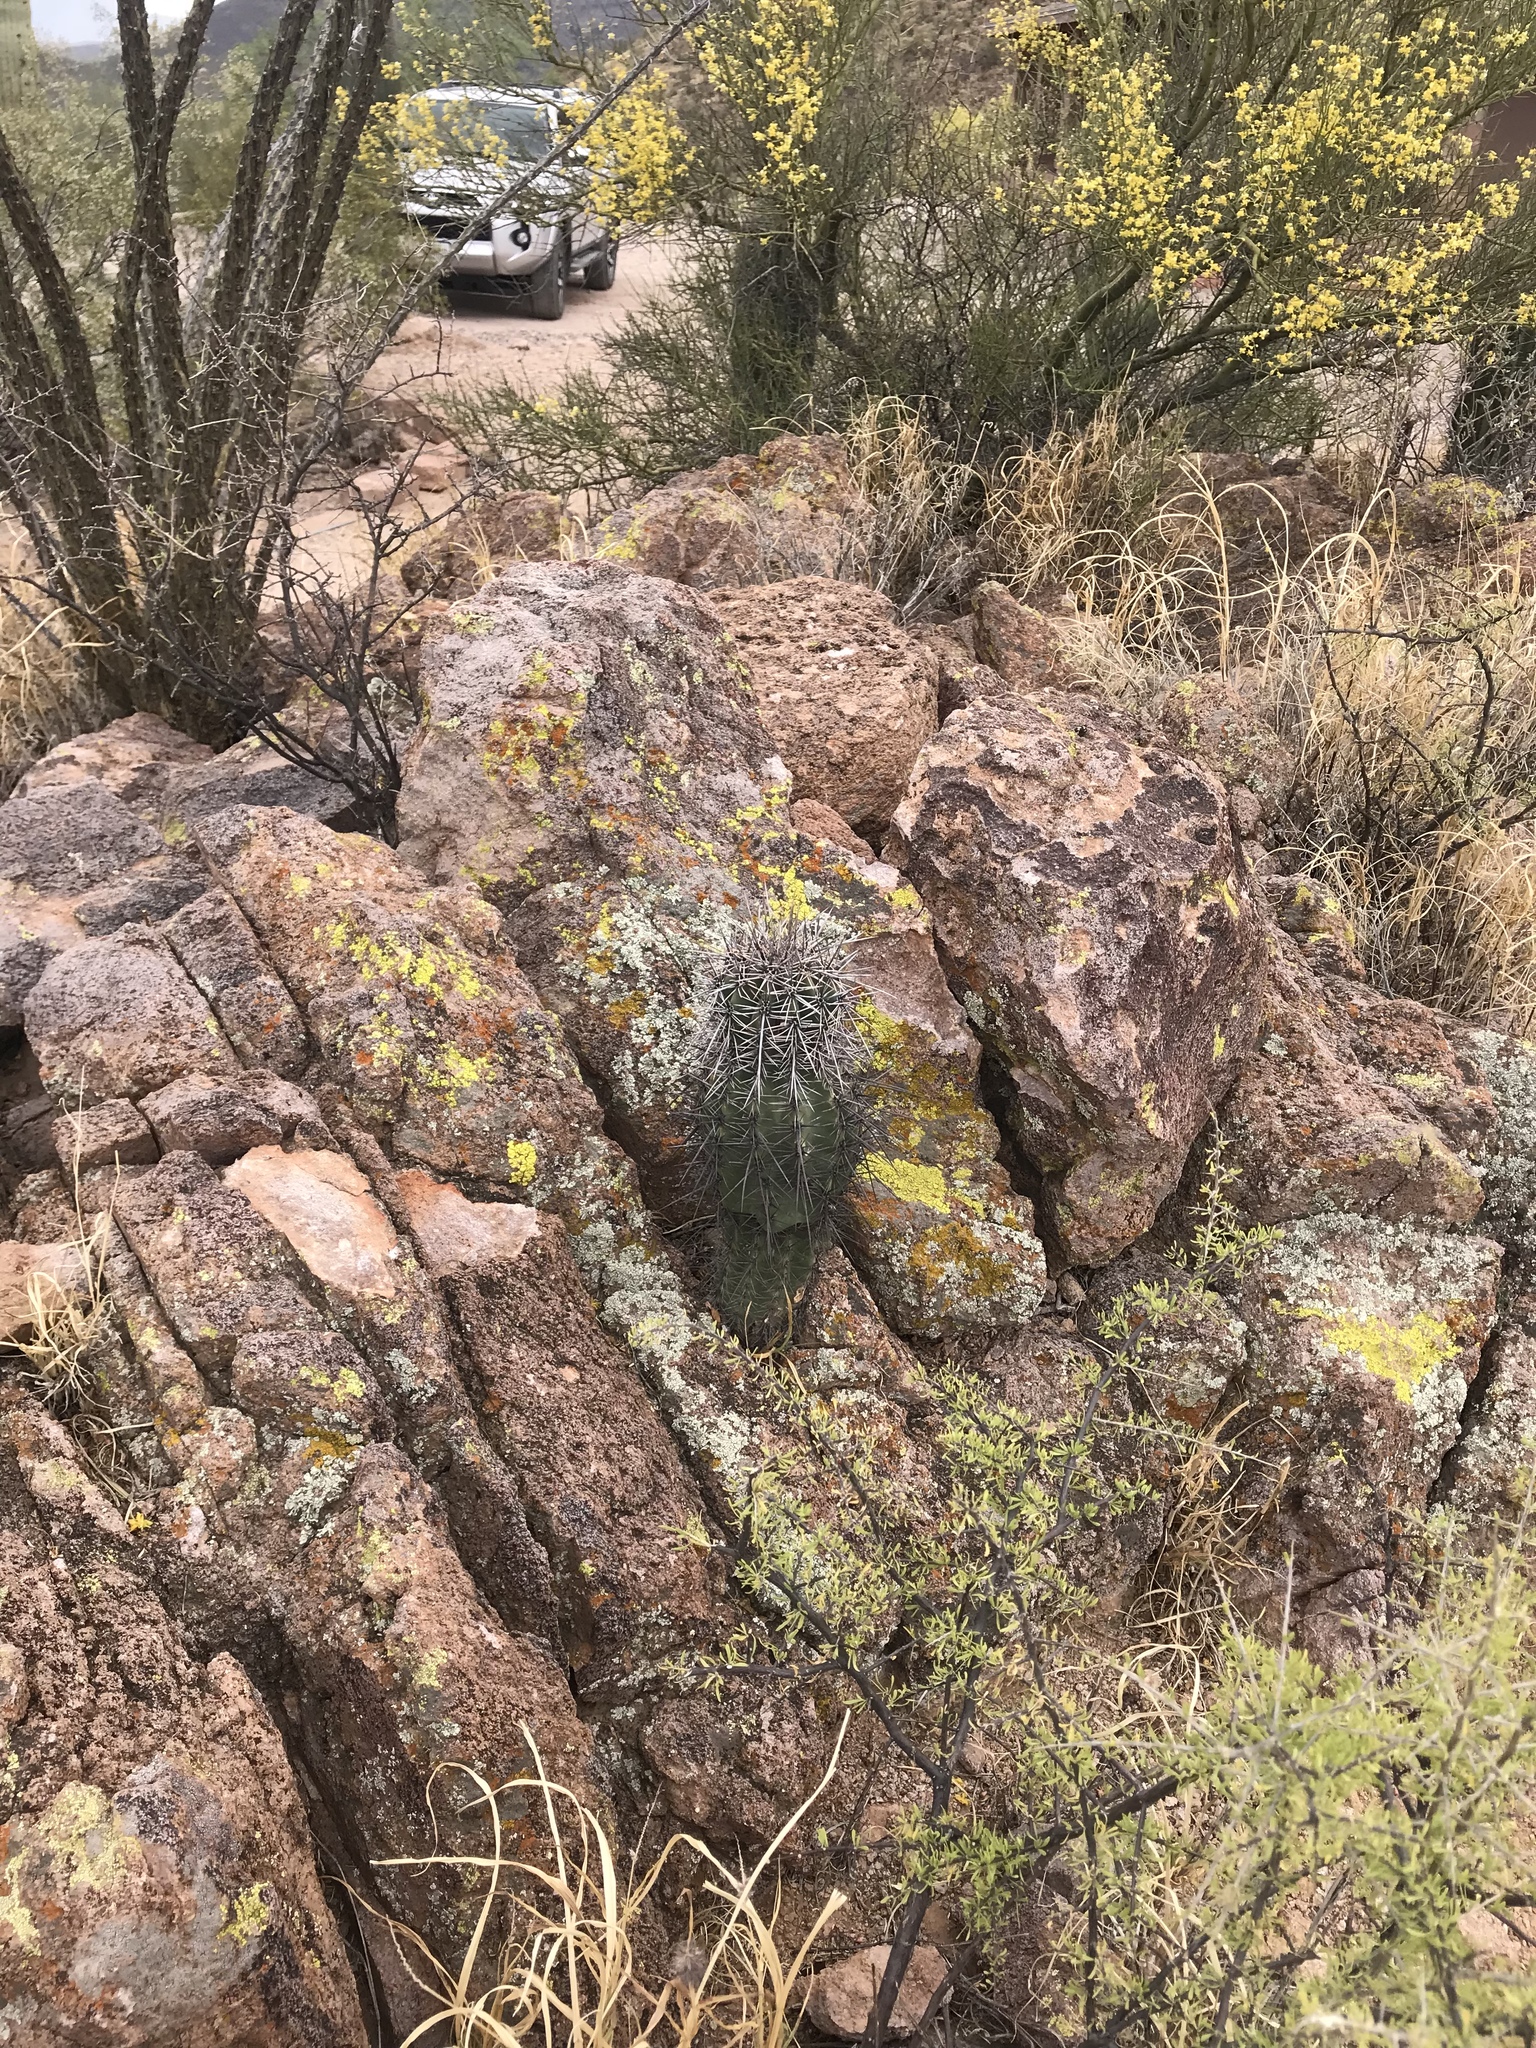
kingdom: Plantae
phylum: Tracheophyta
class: Magnoliopsida
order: Caryophyllales
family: Cactaceae
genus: Carnegiea
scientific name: Carnegiea gigantea
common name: Saguaro
